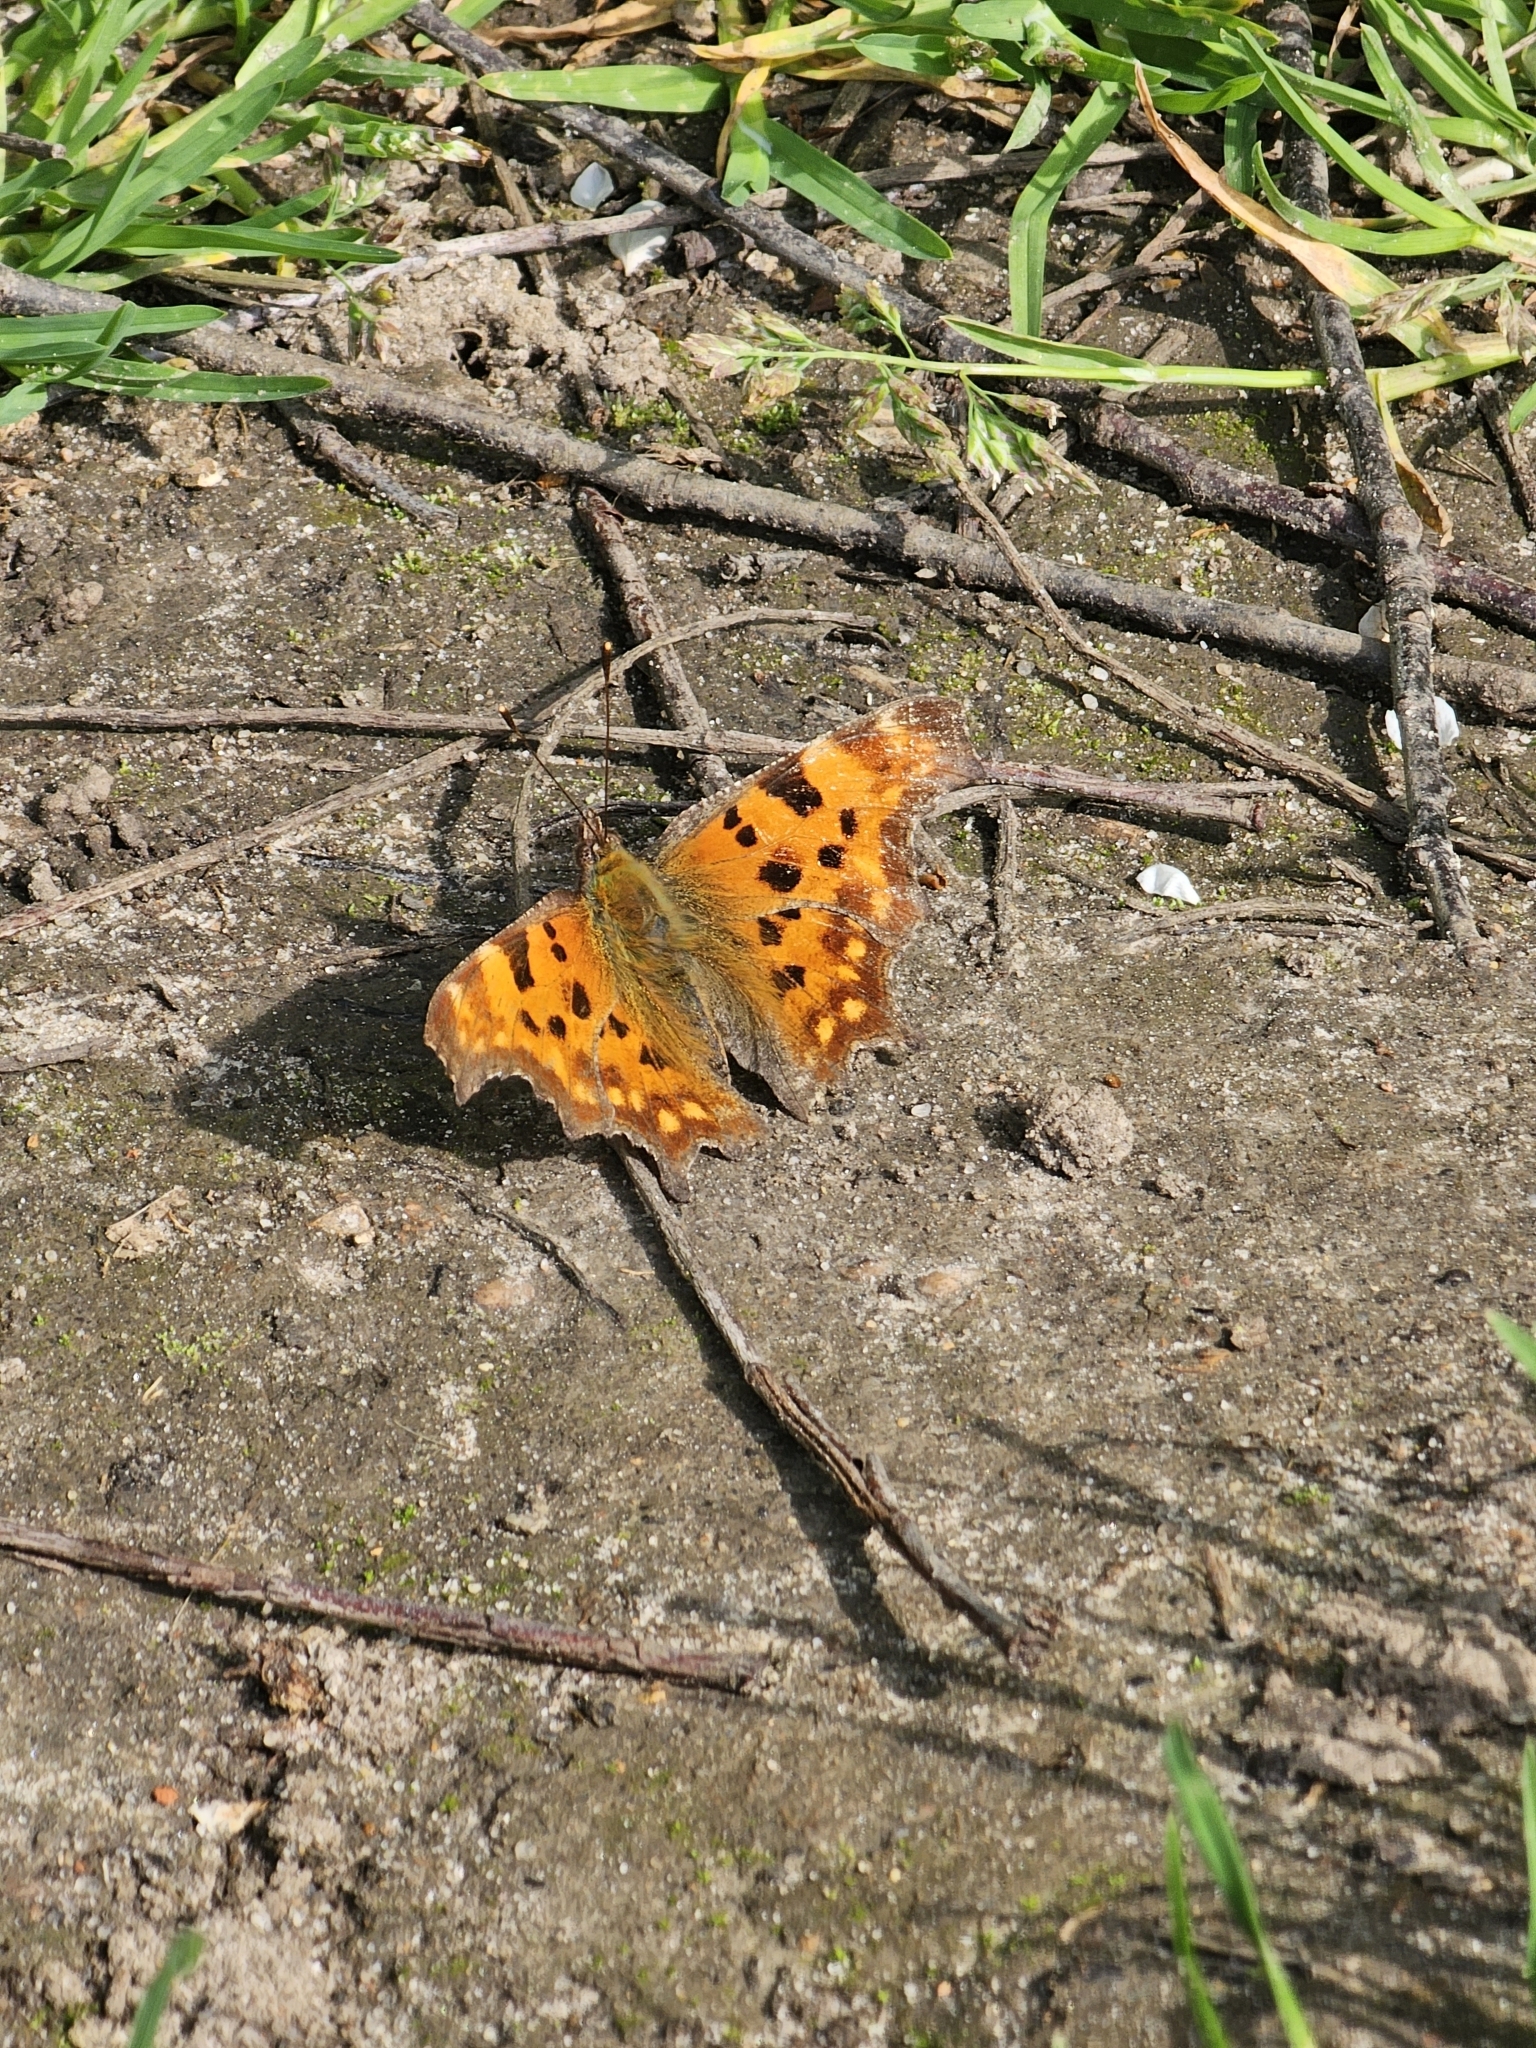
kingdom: Animalia
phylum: Arthropoda
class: Insecta
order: Lepidoptera
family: Nymphalidae
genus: Polygonia
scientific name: Polygonia c-album
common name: Comma
